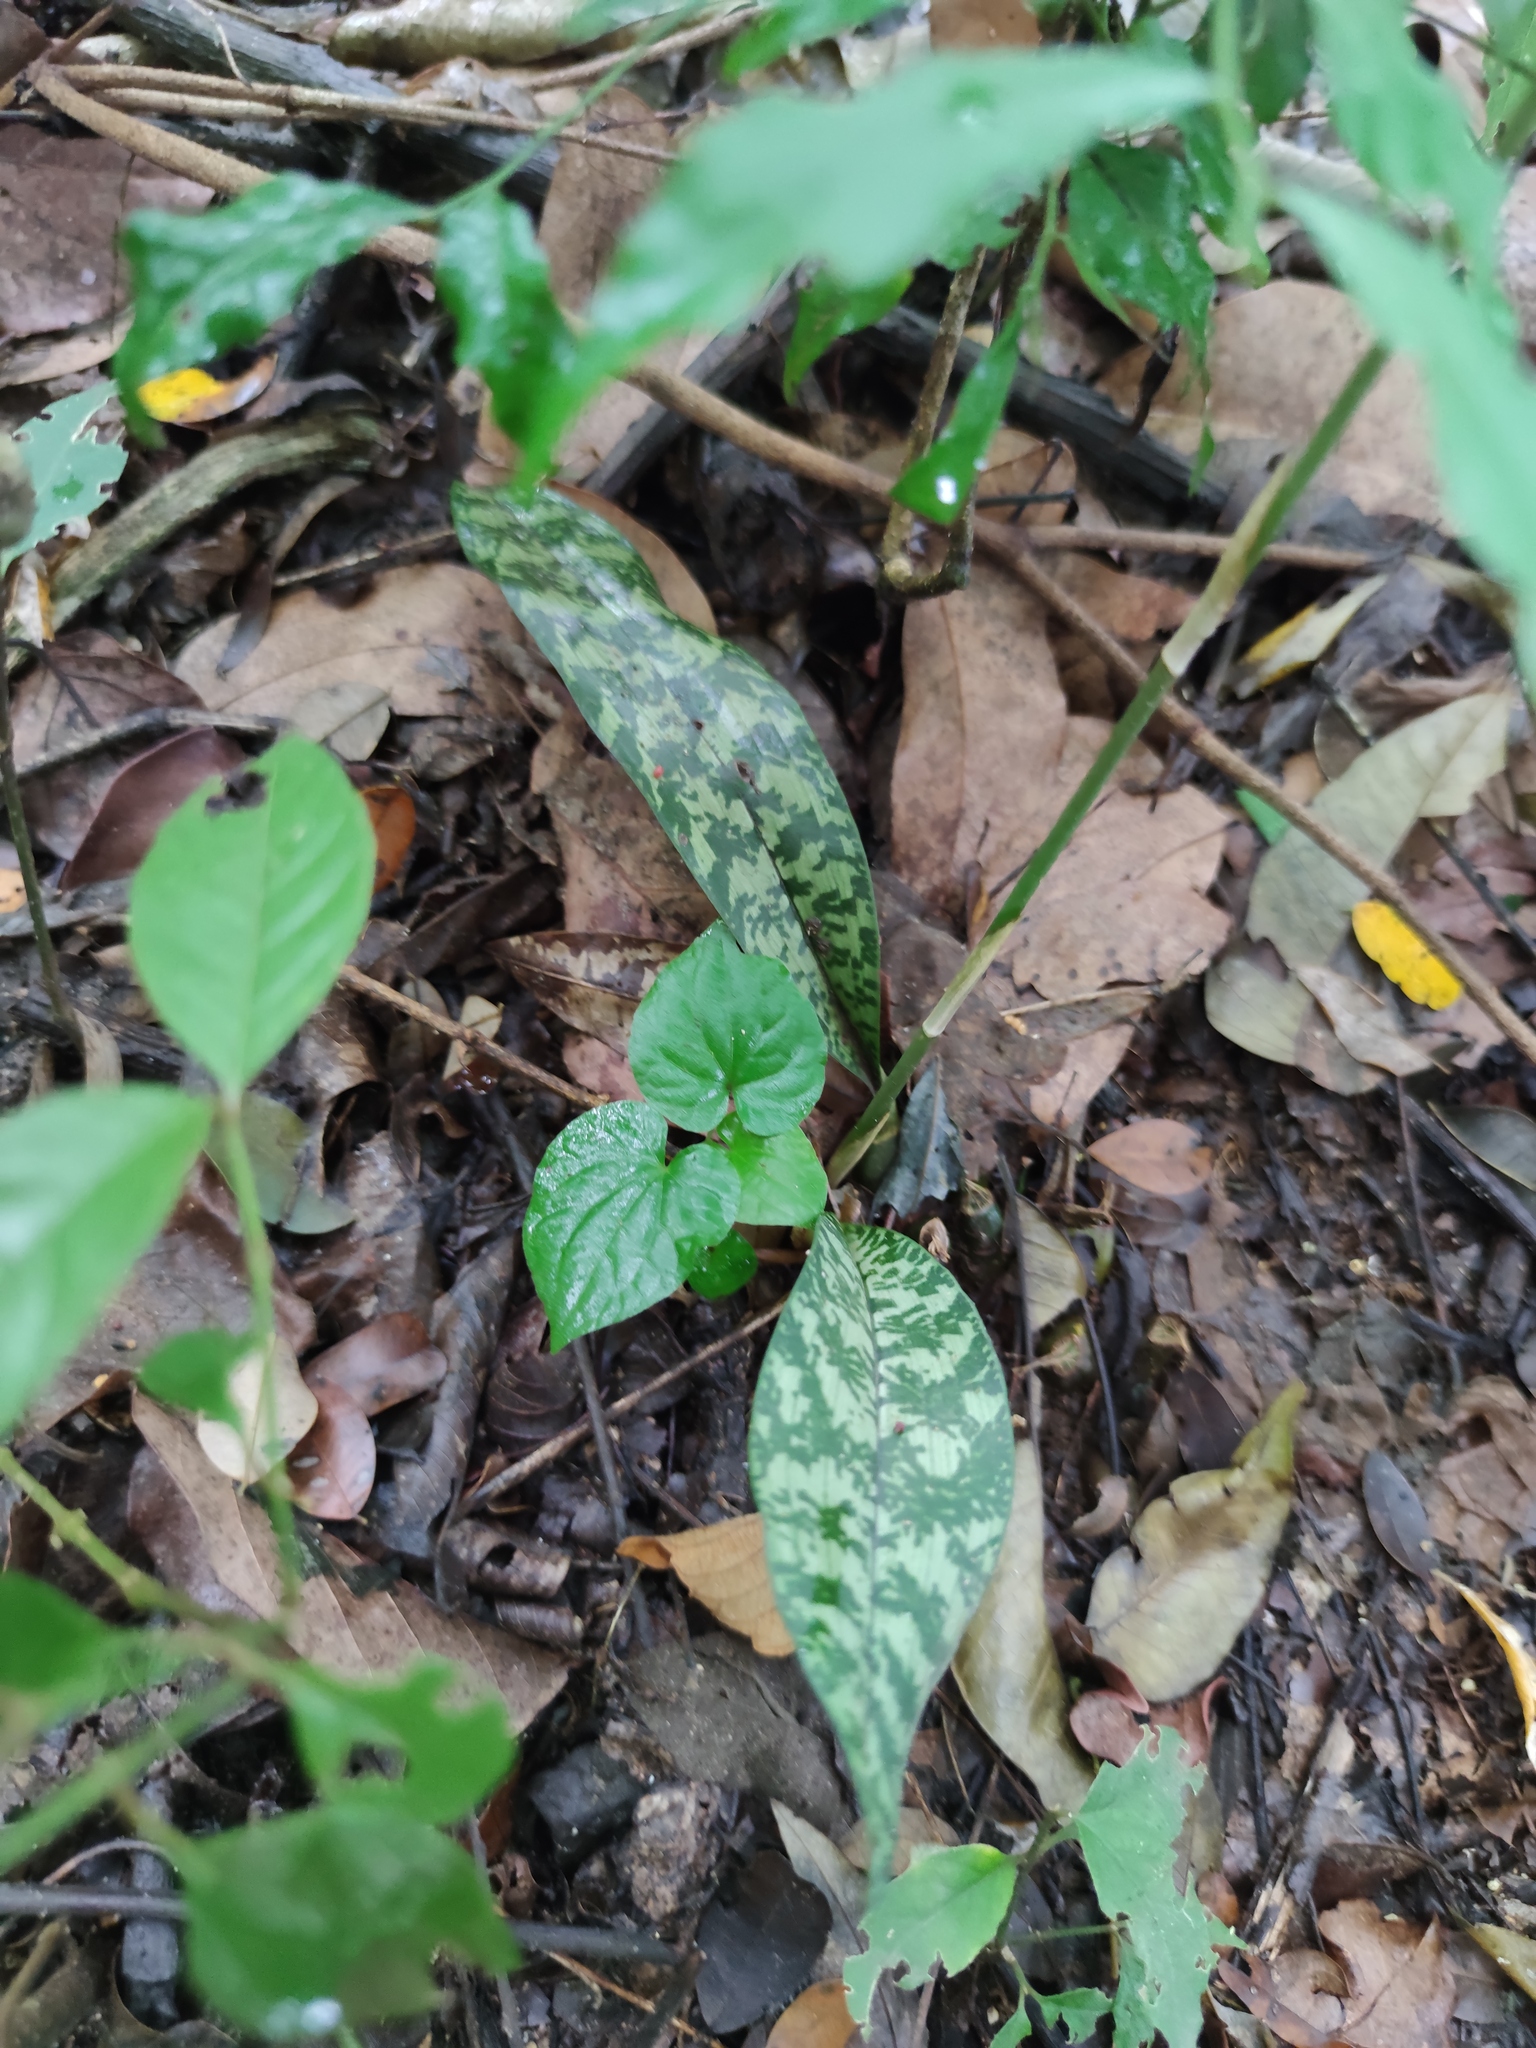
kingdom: Plantae
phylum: Tracheophyta
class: Liliopsida
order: Asparagales
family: Orchidaceae
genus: Eulophia
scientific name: Eulophia maculata
